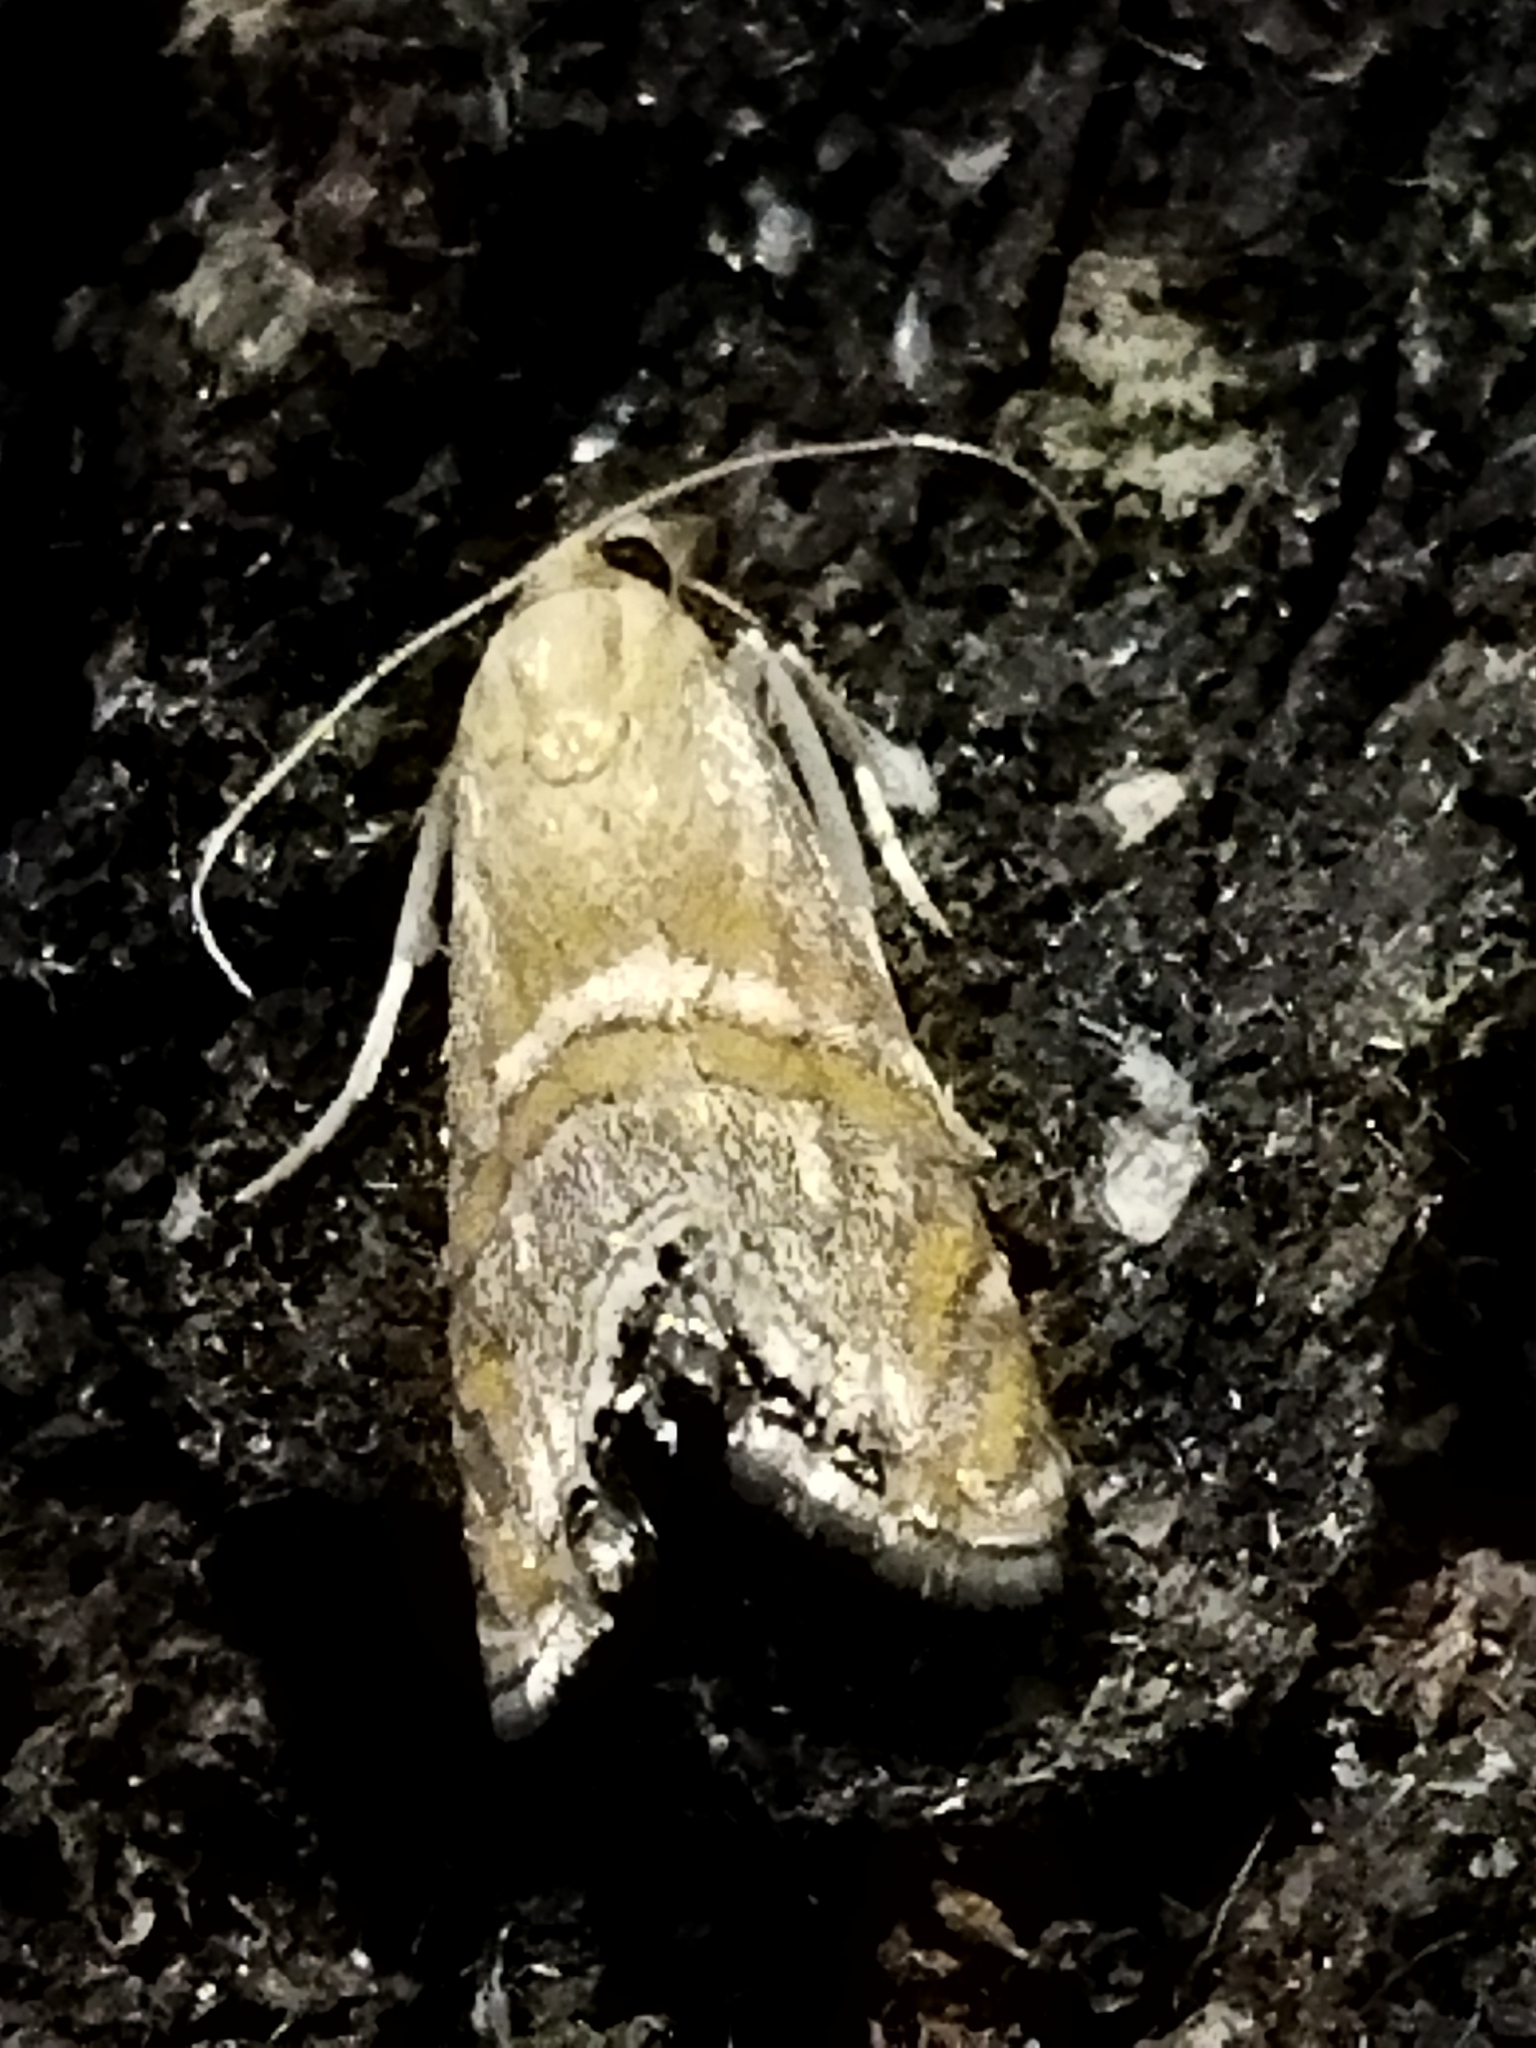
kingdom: Animalia
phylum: Arthropoda
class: Insecta
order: Lepidoptera
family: Crambidae
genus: Euchromius
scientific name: Euchromius bella
